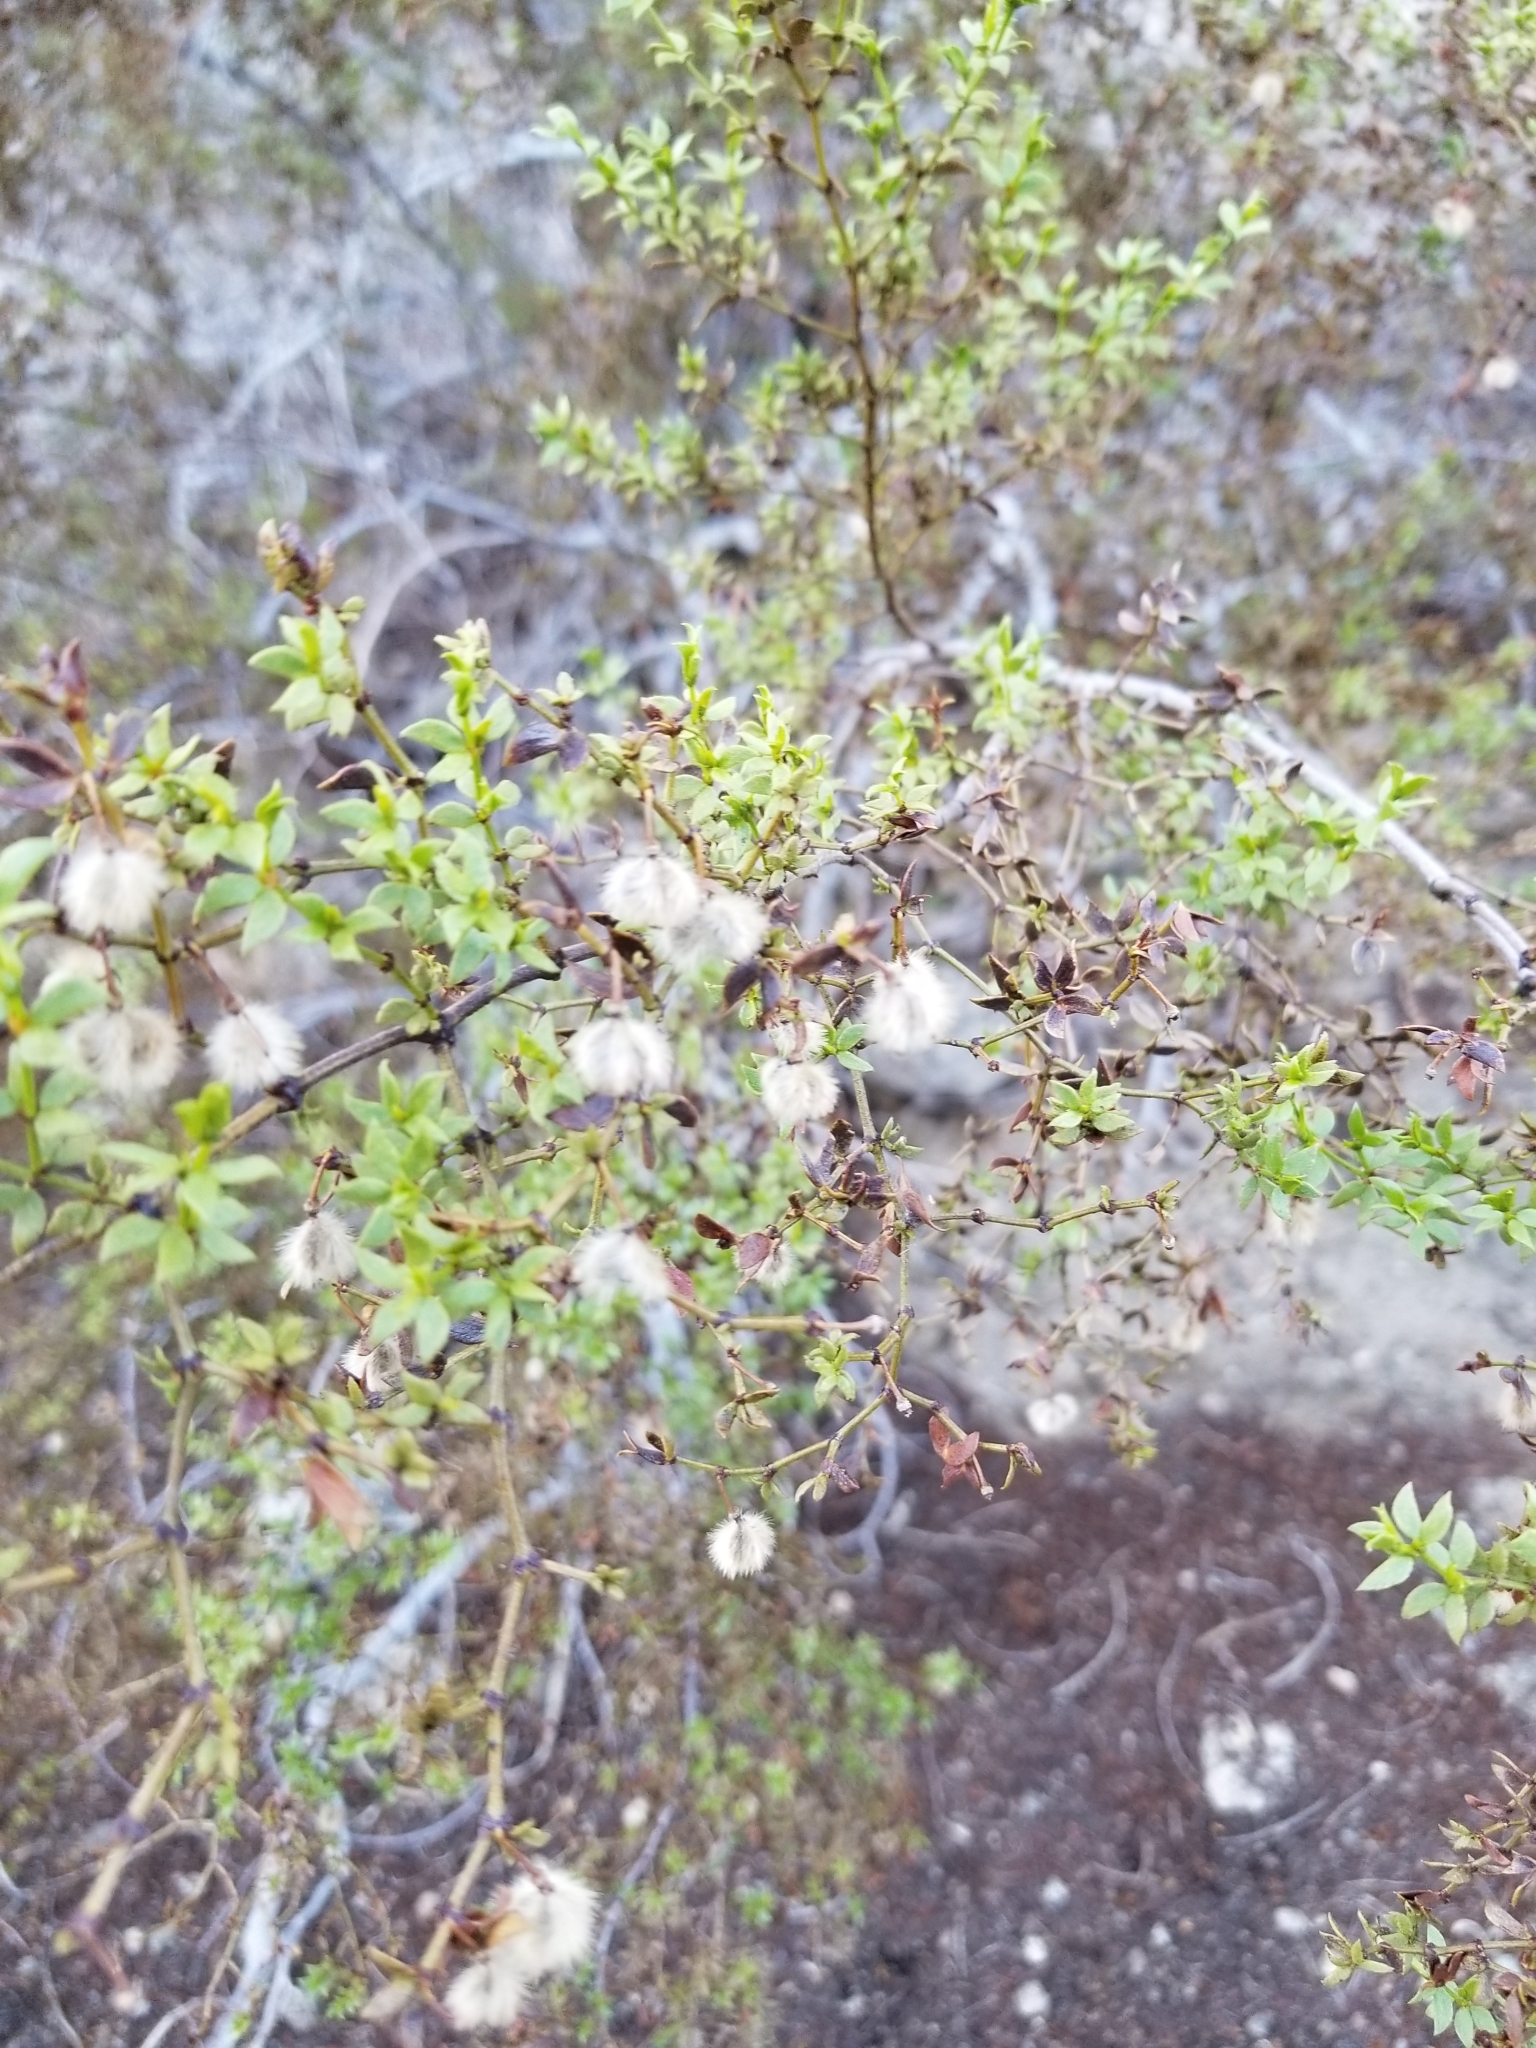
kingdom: Plantae
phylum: Tracheophyta
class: Magnoliopsida
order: Zygophyllales
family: Zygophyllaceae
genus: Larrea
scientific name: Larrea tridentata
